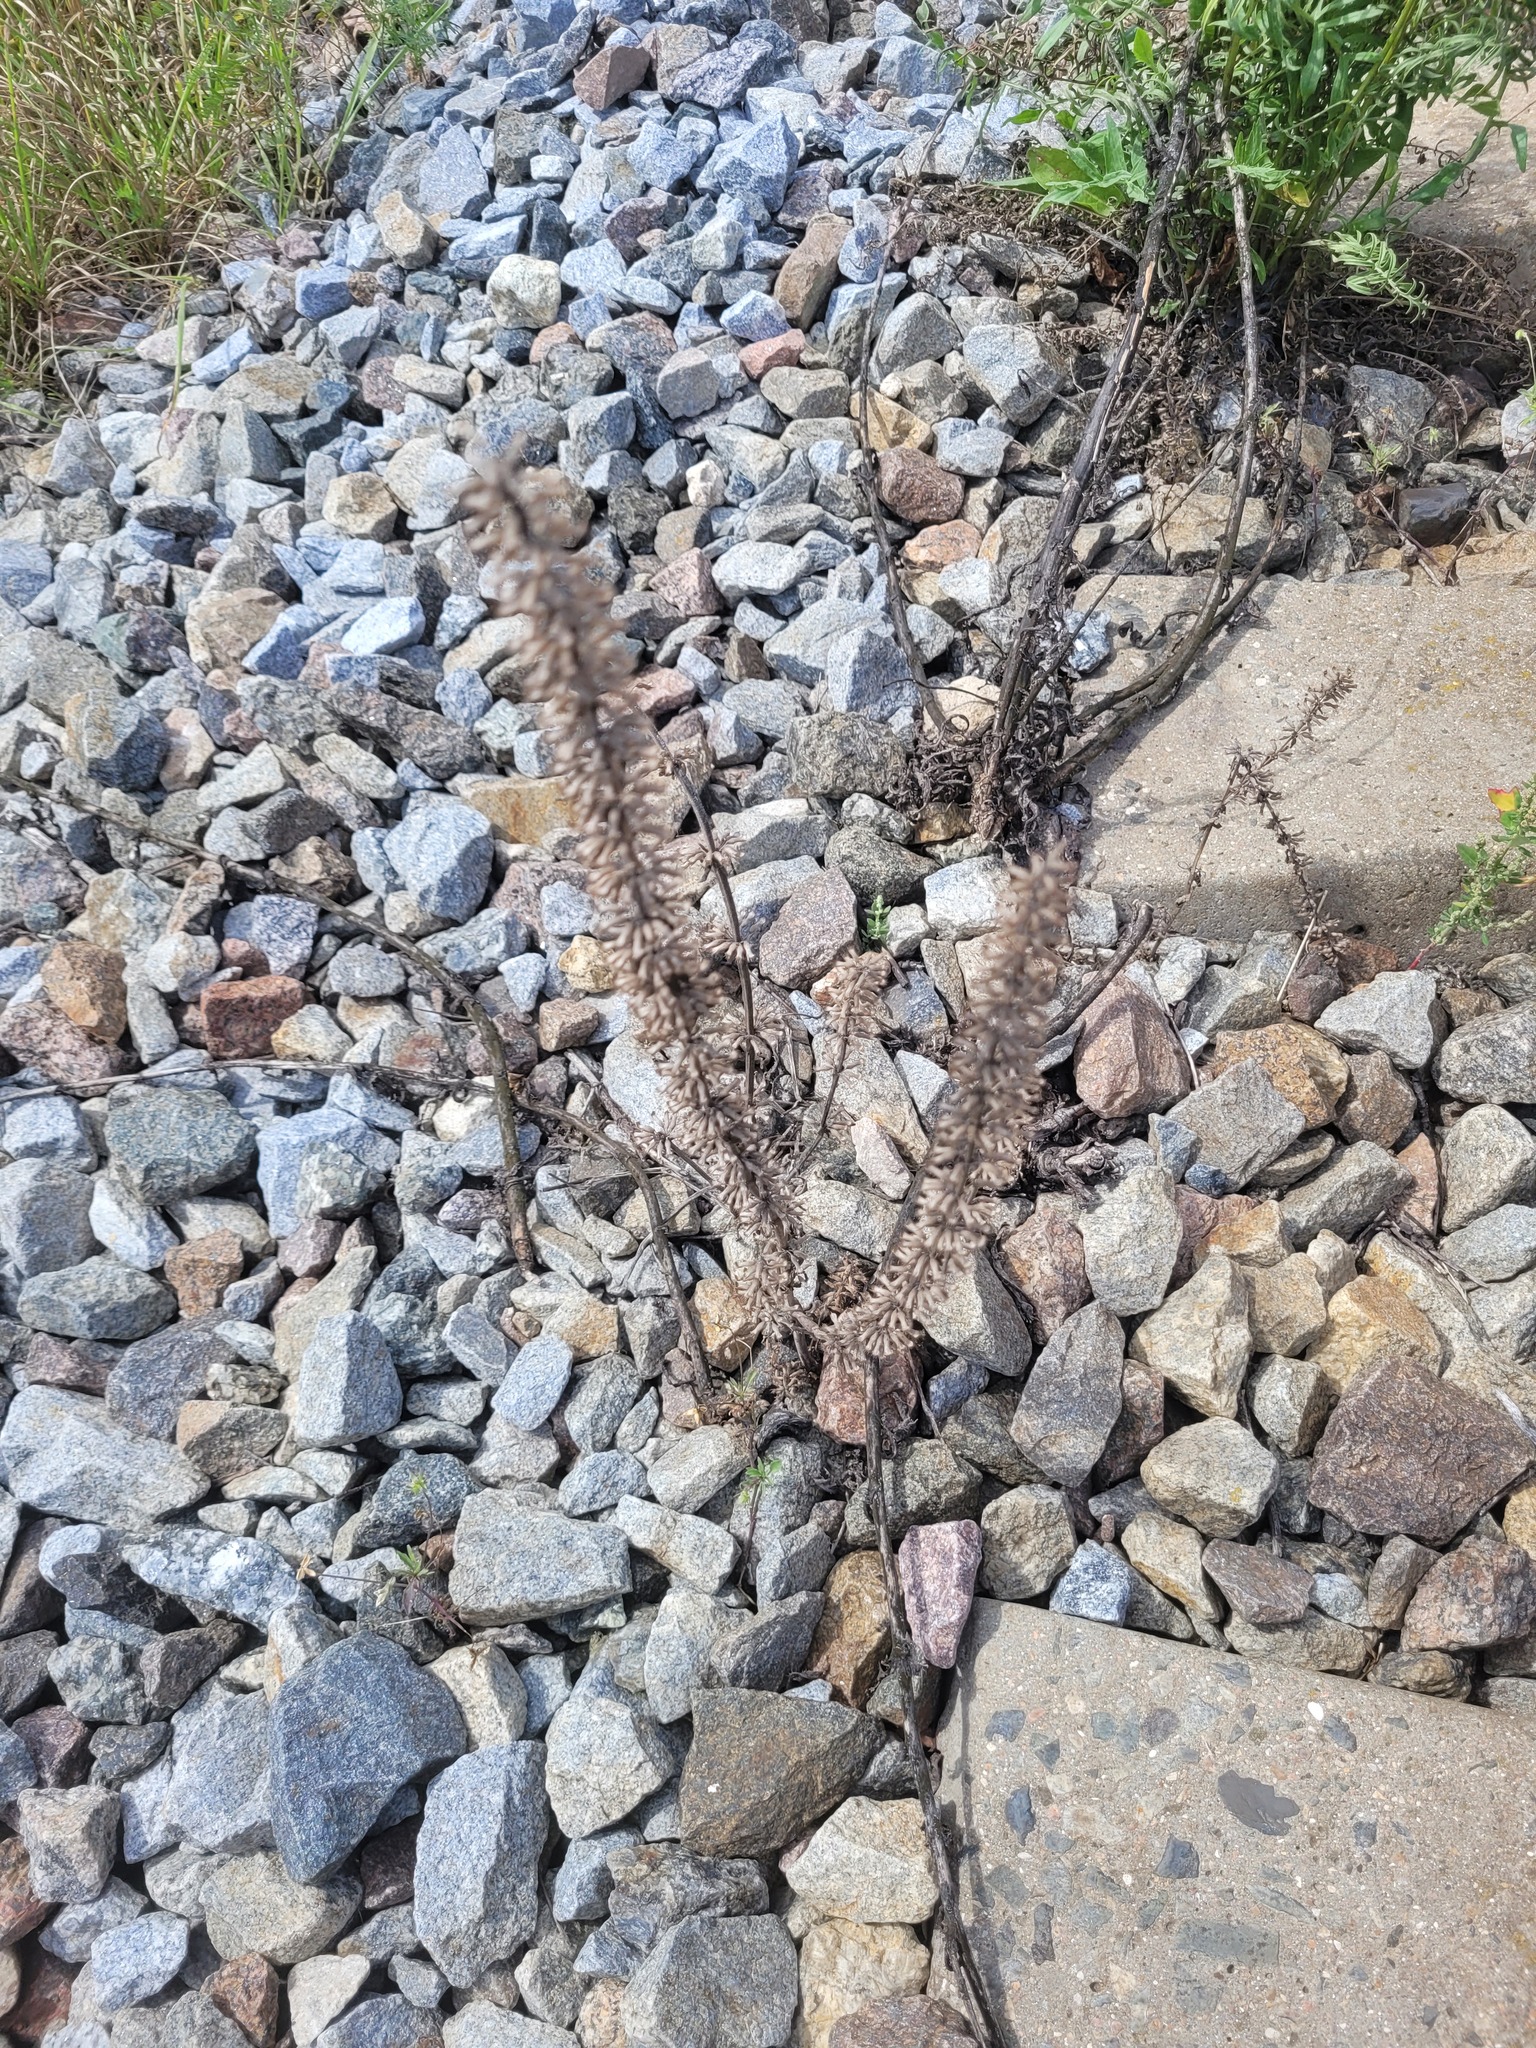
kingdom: Plantae
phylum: Tracheophyta
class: Magnoliopsida
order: Lamiales
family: Lamiaceae
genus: Dracocephalum
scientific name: Dracocephalum thymiflorum
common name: Thymeleaf dragonhead
